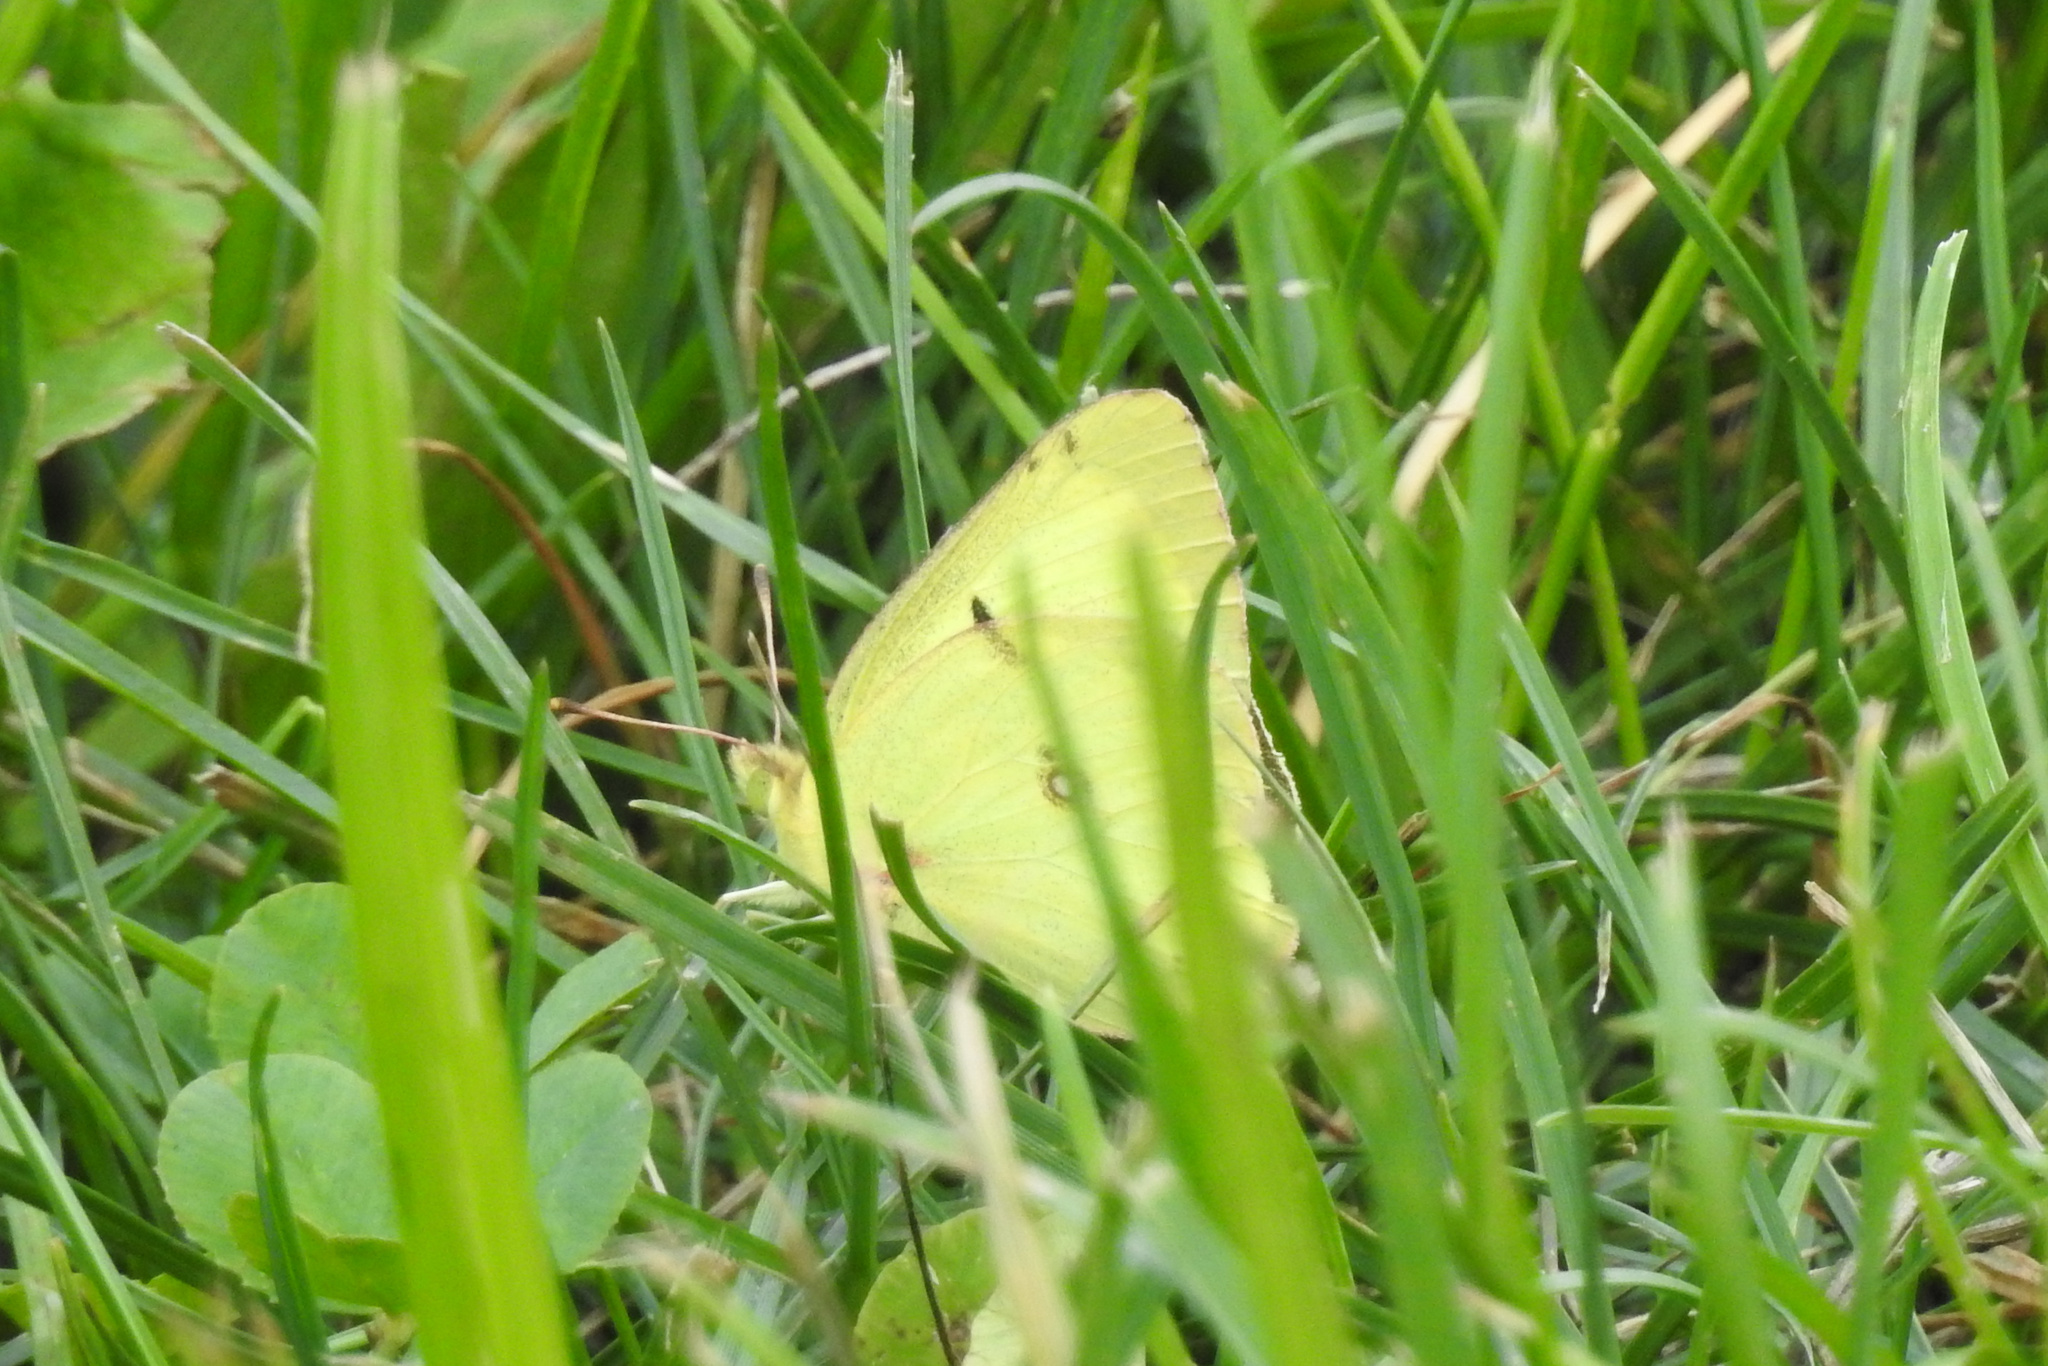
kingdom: Animalia
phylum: Arthropoda
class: Insecta
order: Lepidoptera
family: Pieridae
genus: Colias
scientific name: Colias philodice
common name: Clouded sulphur
